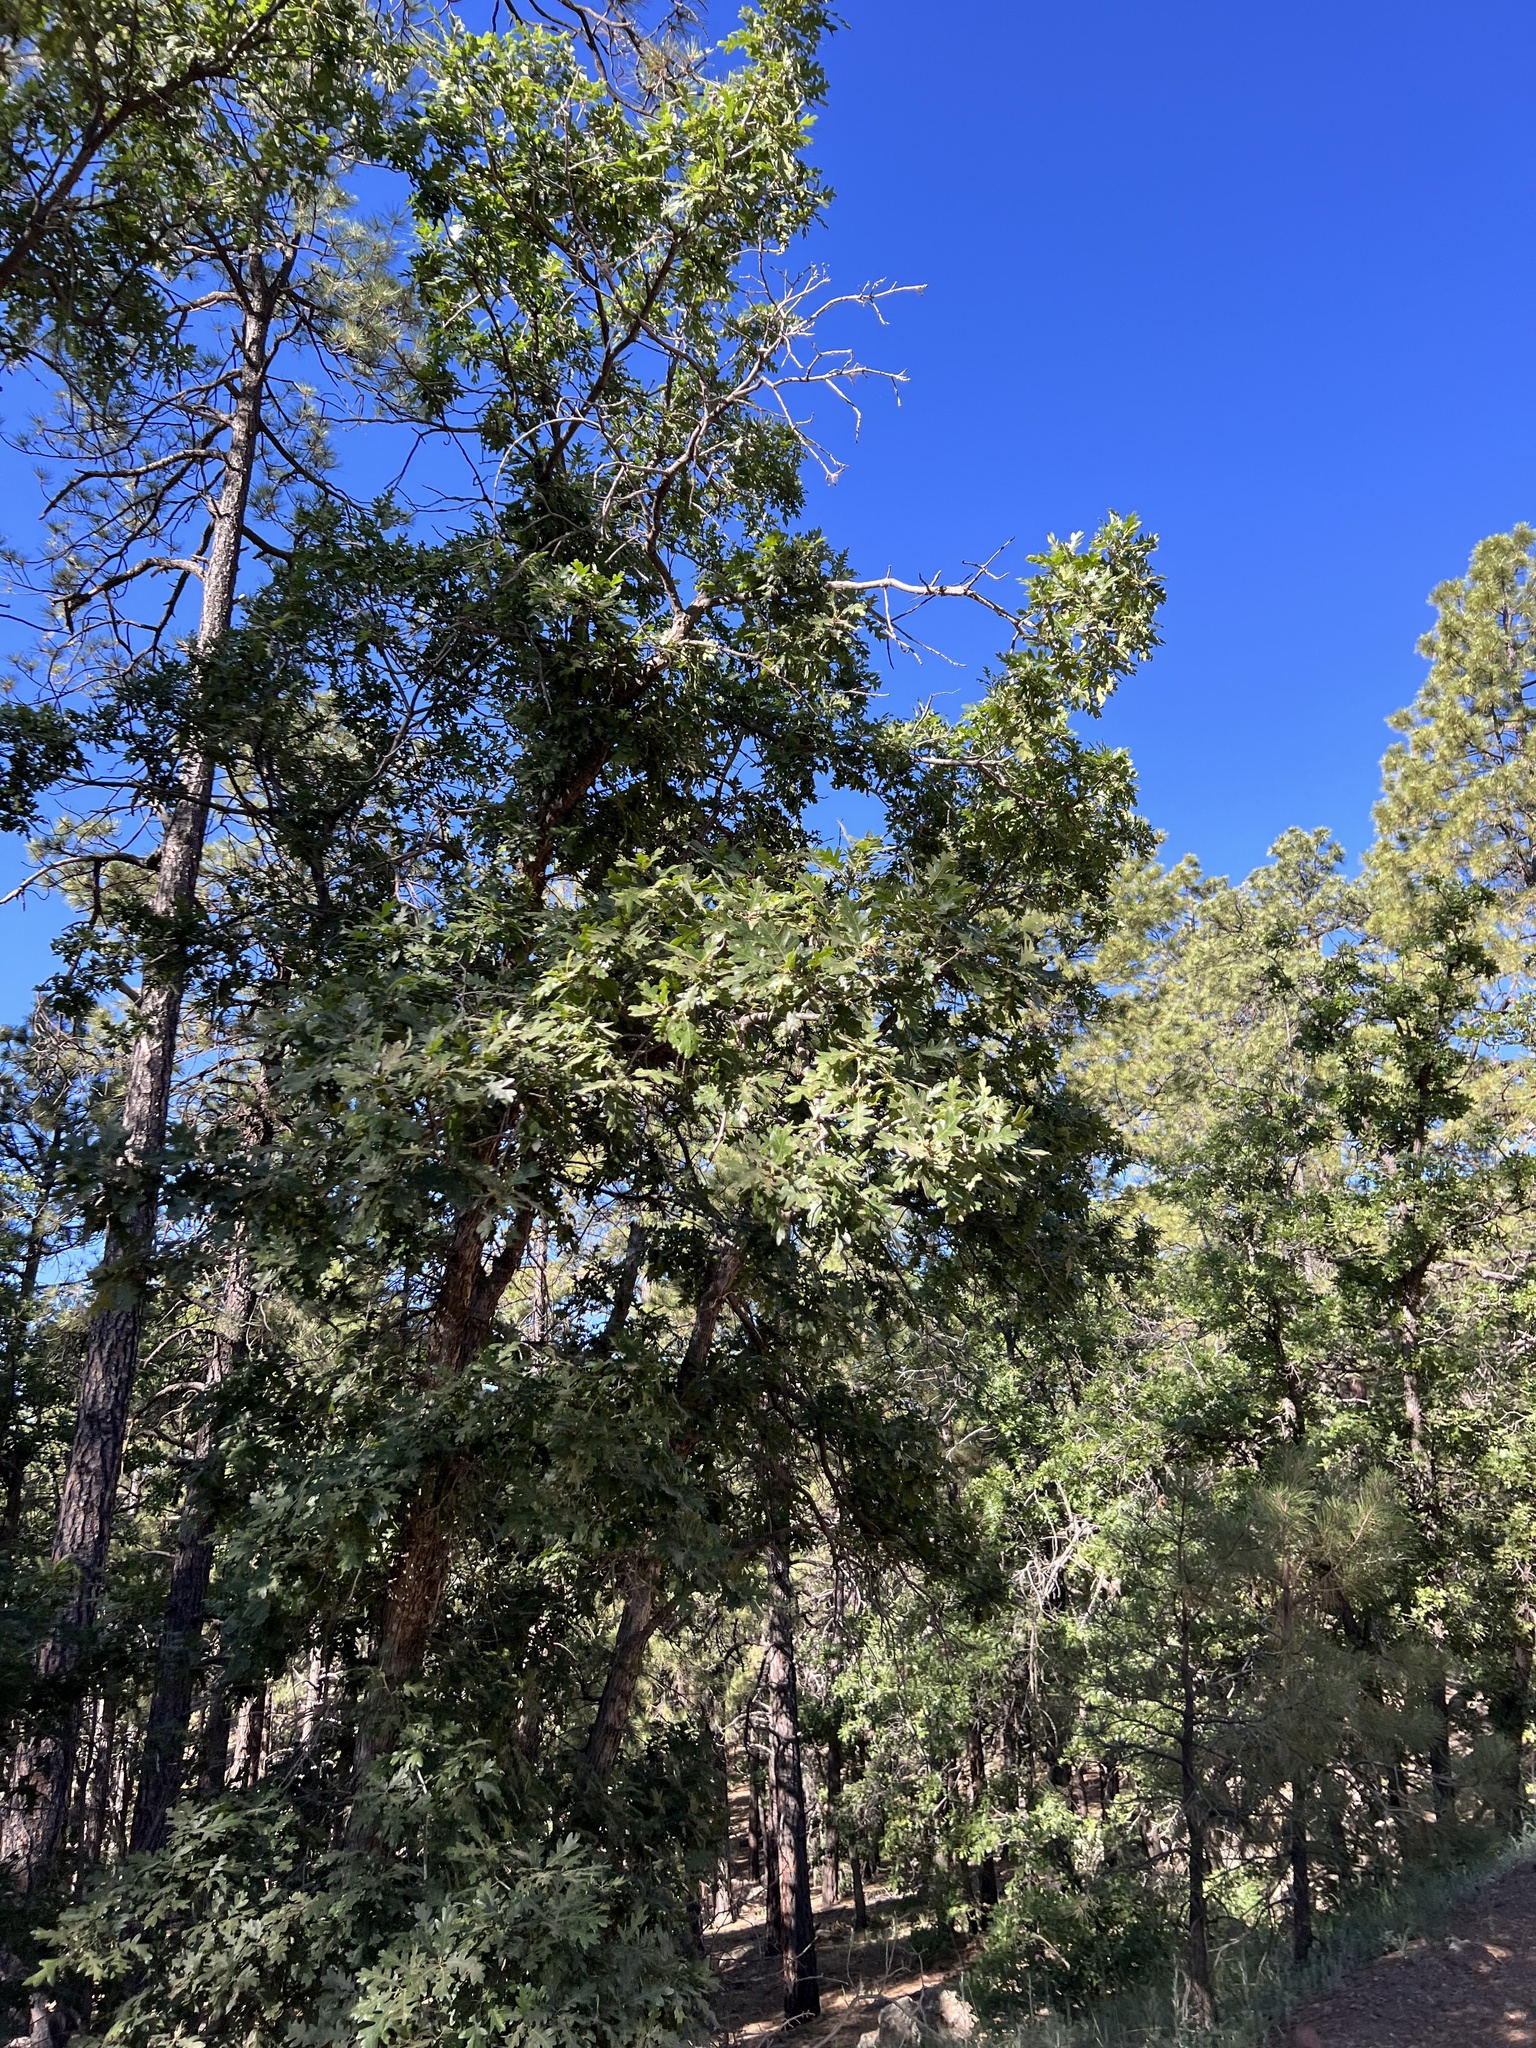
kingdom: Plantae
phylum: Tracheophyta
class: Magnoliopsida
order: Fagales
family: Fagaceae
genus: Quercus
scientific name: Quercus gambelii
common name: Gambel oak
